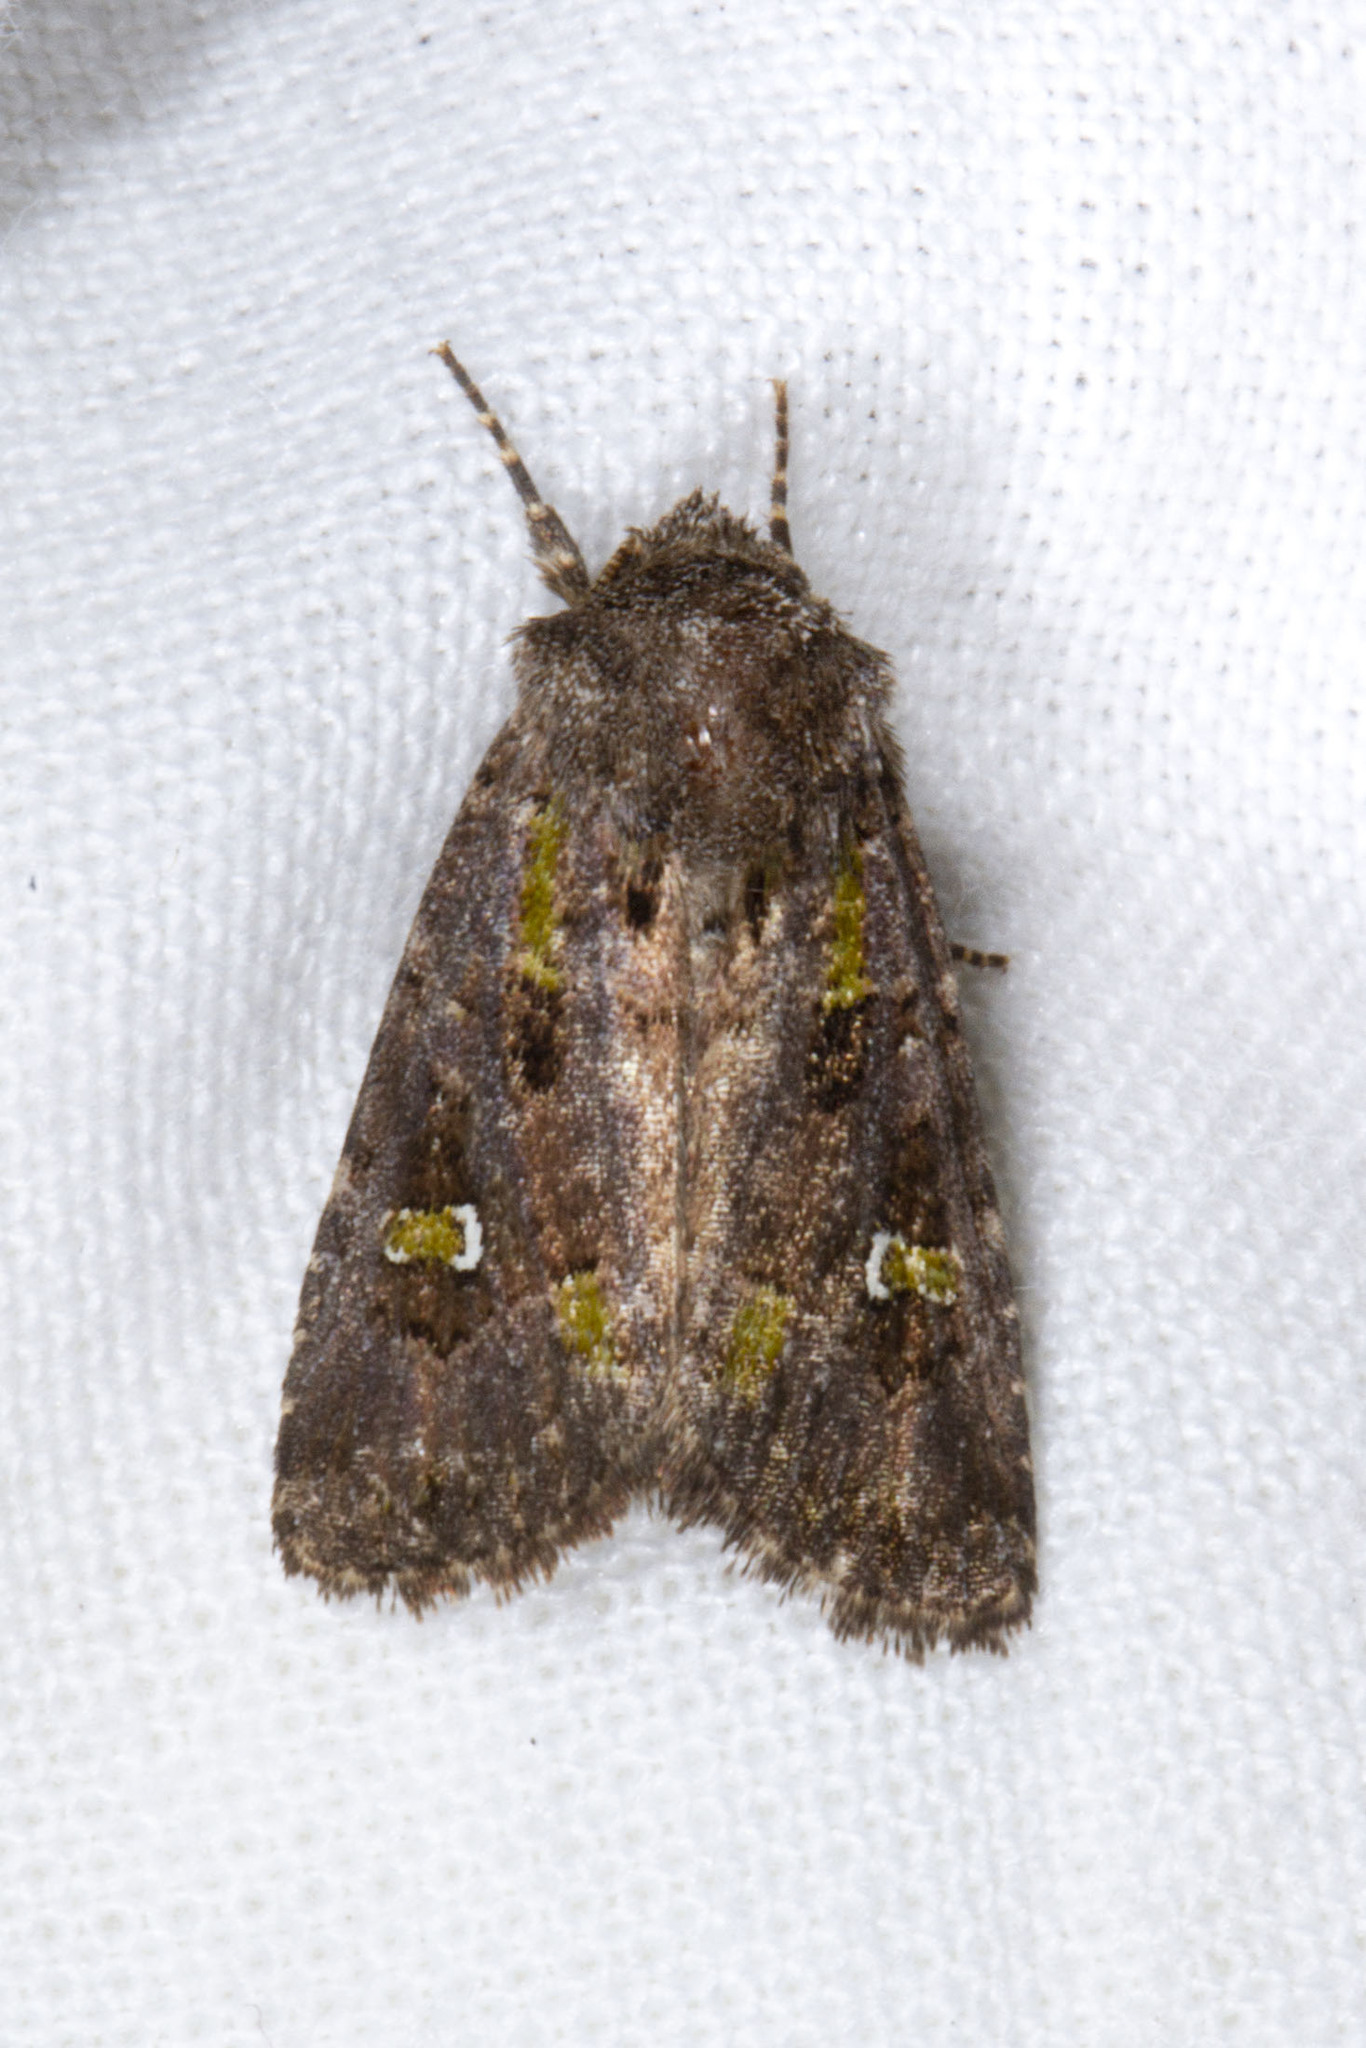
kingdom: Animalia
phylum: Arthropoda
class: Insecta
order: Lepidoptera
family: Noctuidae
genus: Lacinipolia
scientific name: Lacinipolia renigera
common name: Kidney-spotted minor
